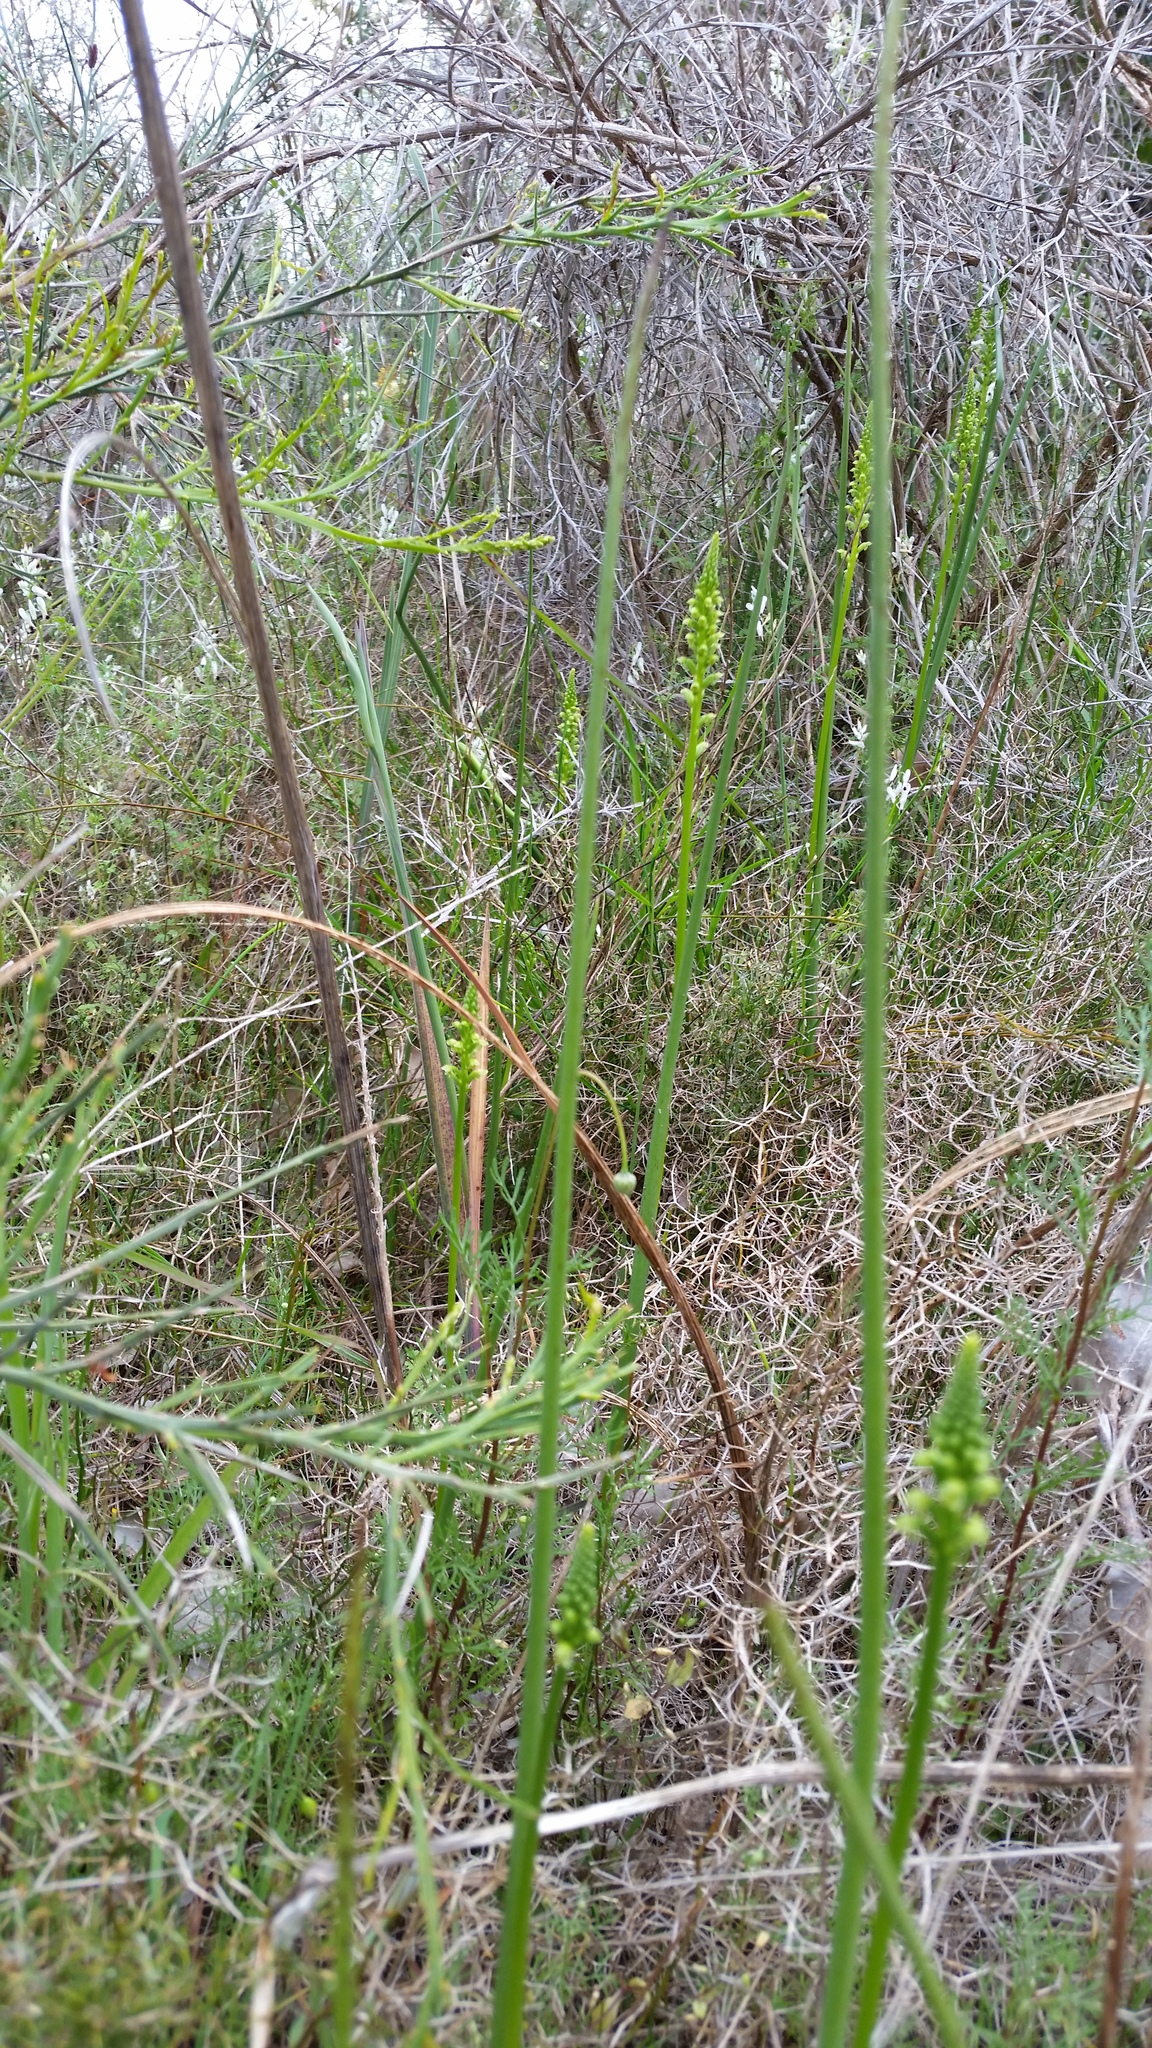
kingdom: Plantae
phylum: Tracheophyta
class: Liliopsida
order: Asparagales
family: Orchidaceae
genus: Microtis
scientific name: Microtis media
